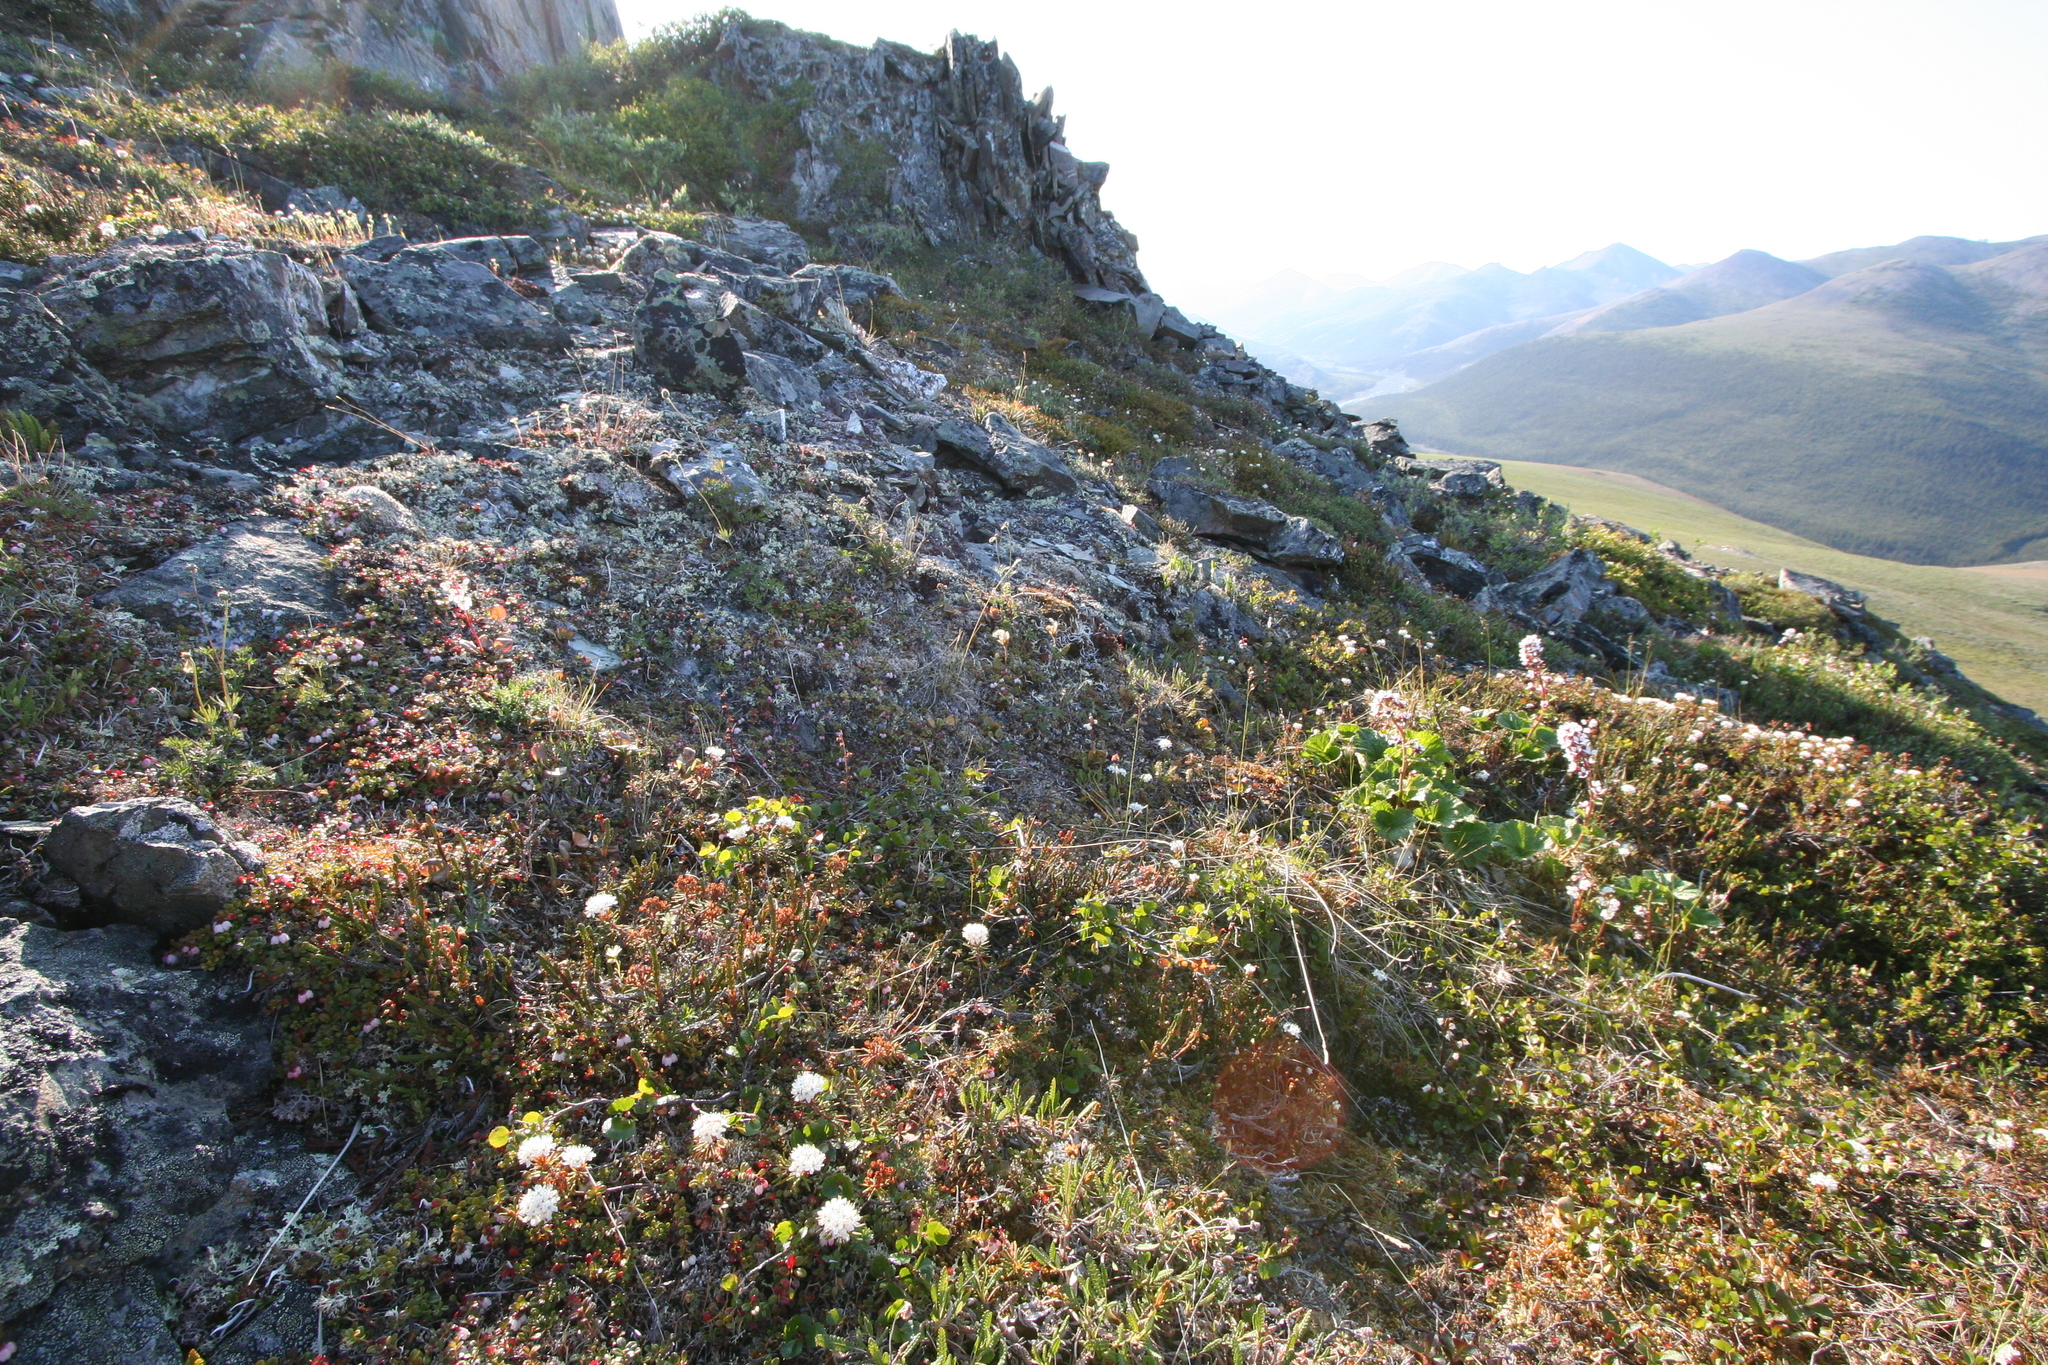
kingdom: Plantae
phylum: Tracheophyta
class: Magnoliopsida
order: Ericales
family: Ericaceae
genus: Vaccinium
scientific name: Vaccinium vitis-idaea
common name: Cowberry
